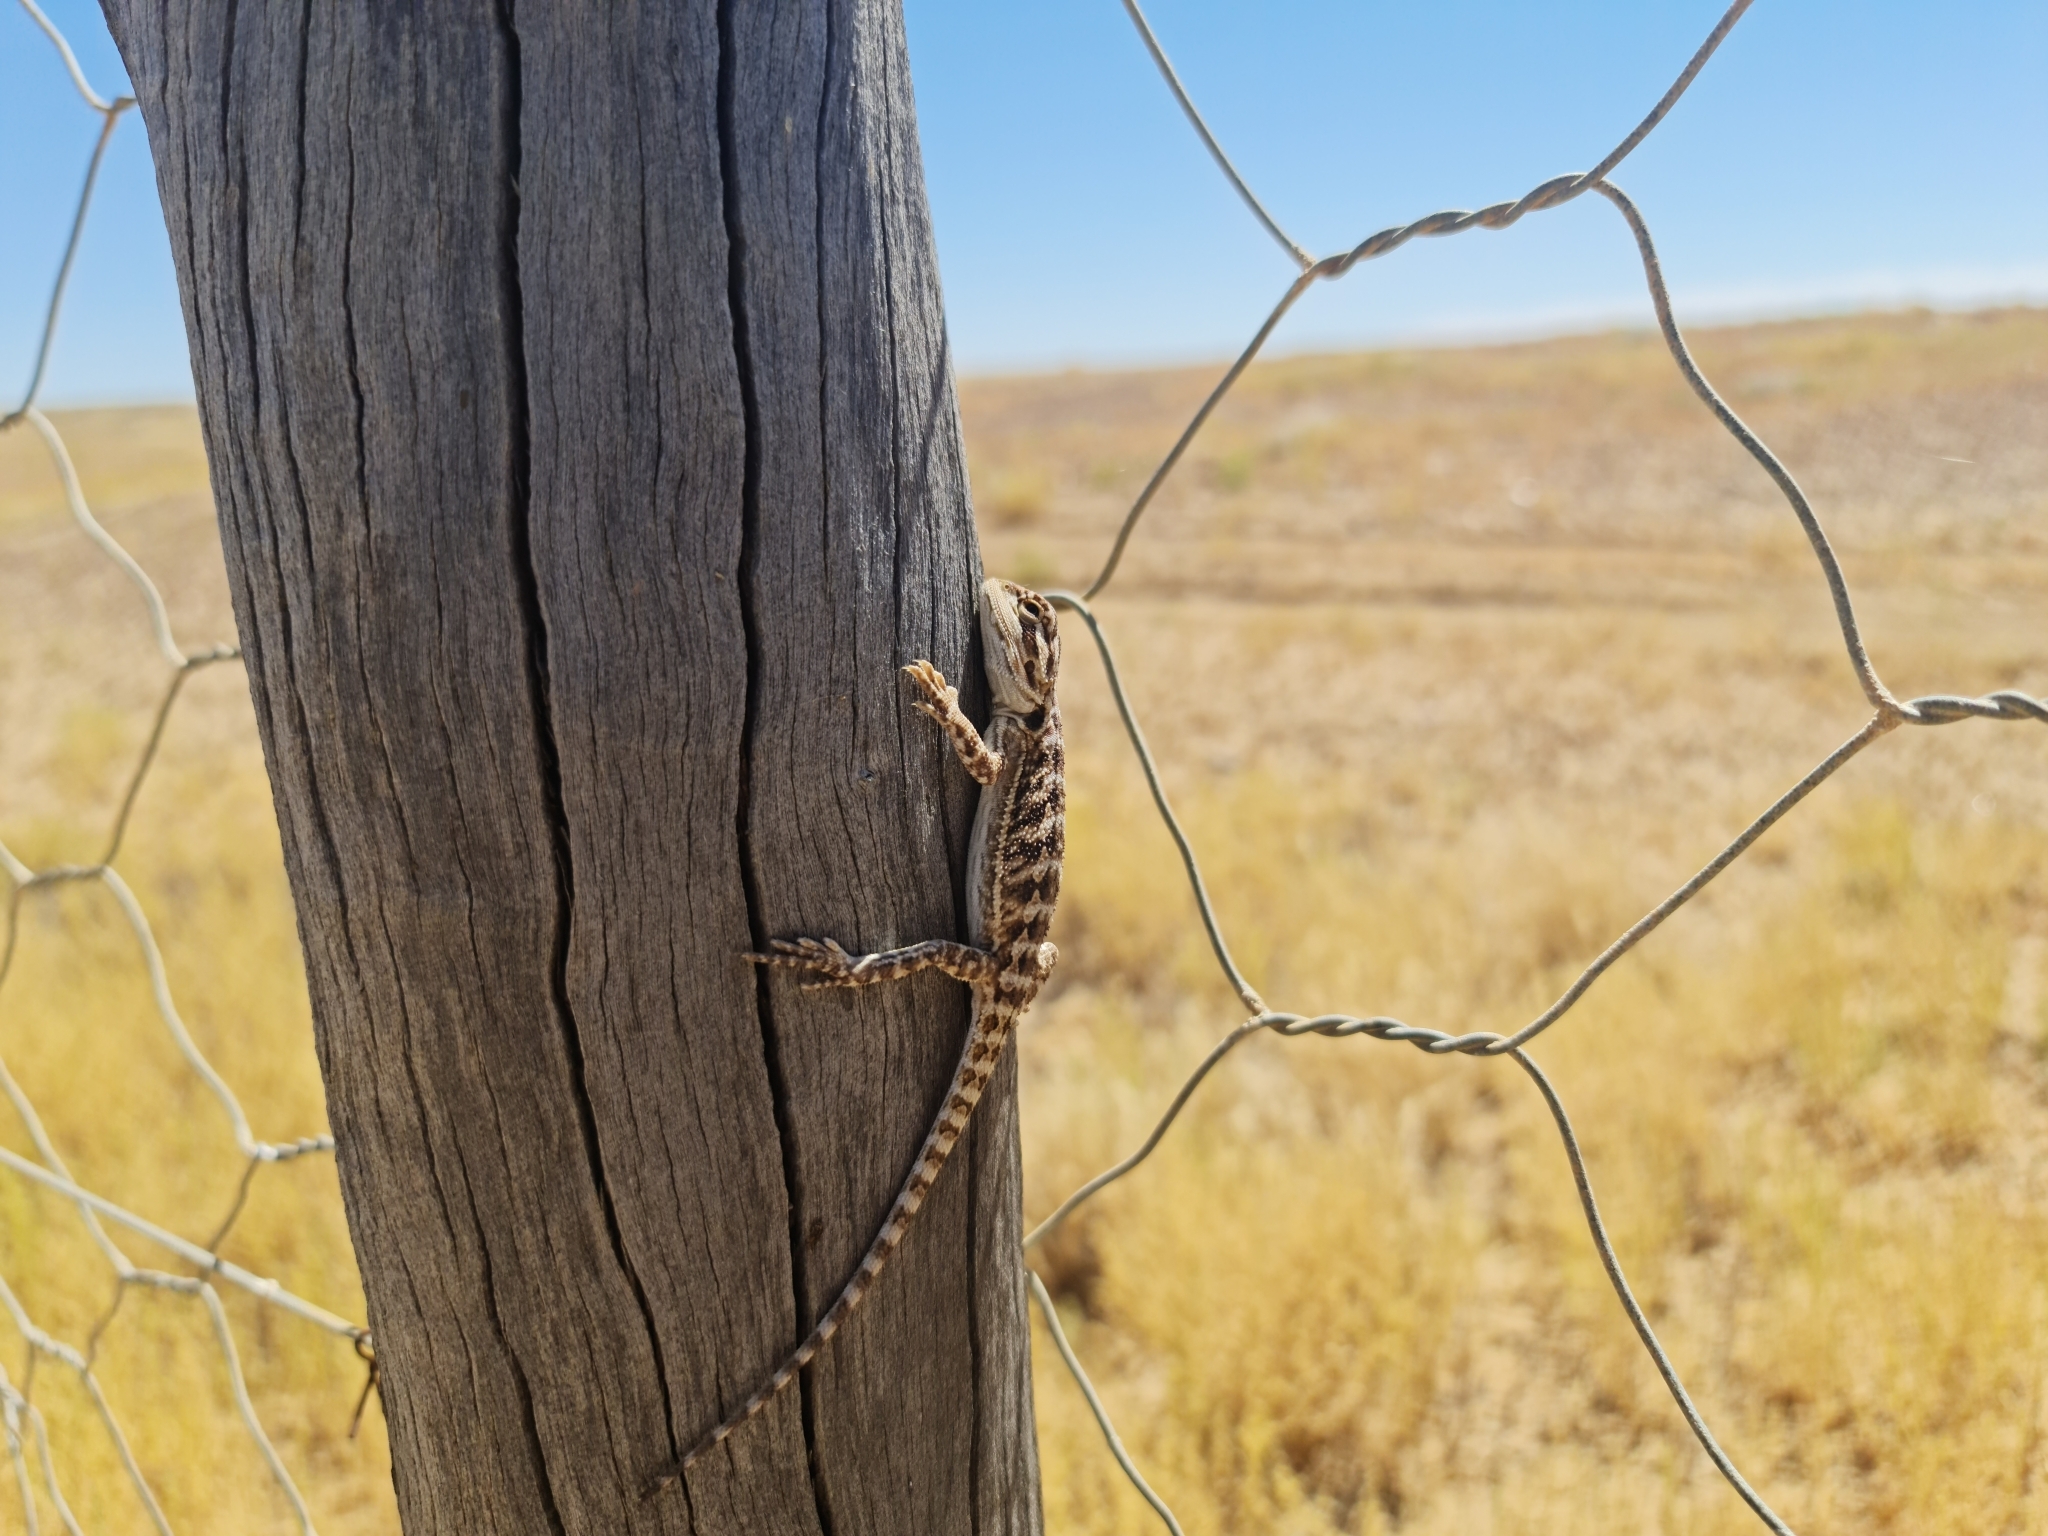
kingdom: Animalia
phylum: Chordata
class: Squamata
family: Agamidae
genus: Pogona
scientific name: Pogona vitticeps
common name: Central bearded dragon
